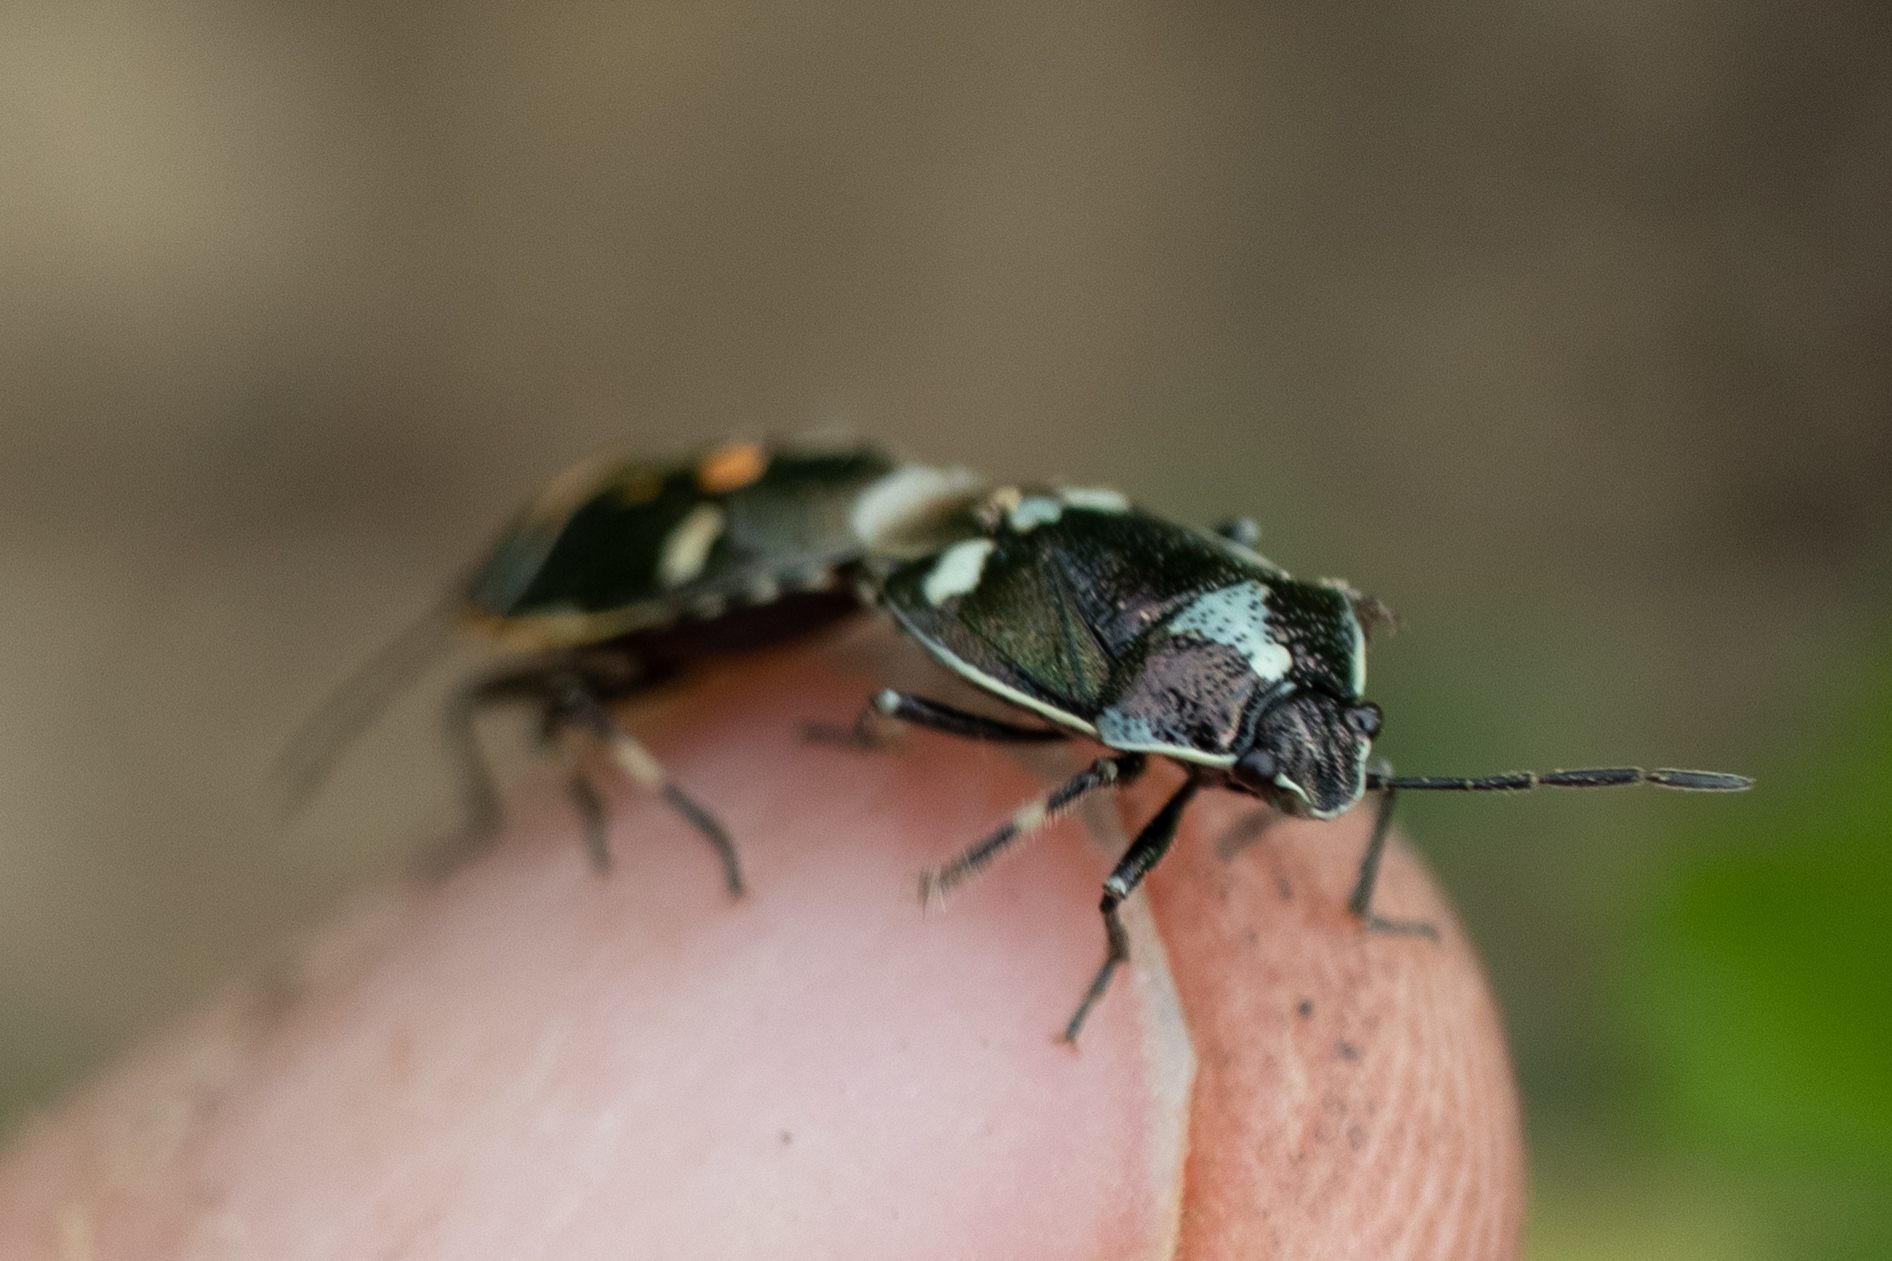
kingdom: Animalia
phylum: Arthropoda
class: Insecta
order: Hemiptera
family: Pentatomidae
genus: Eurydema
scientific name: Eurydema oleracea
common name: Cabbage bug
